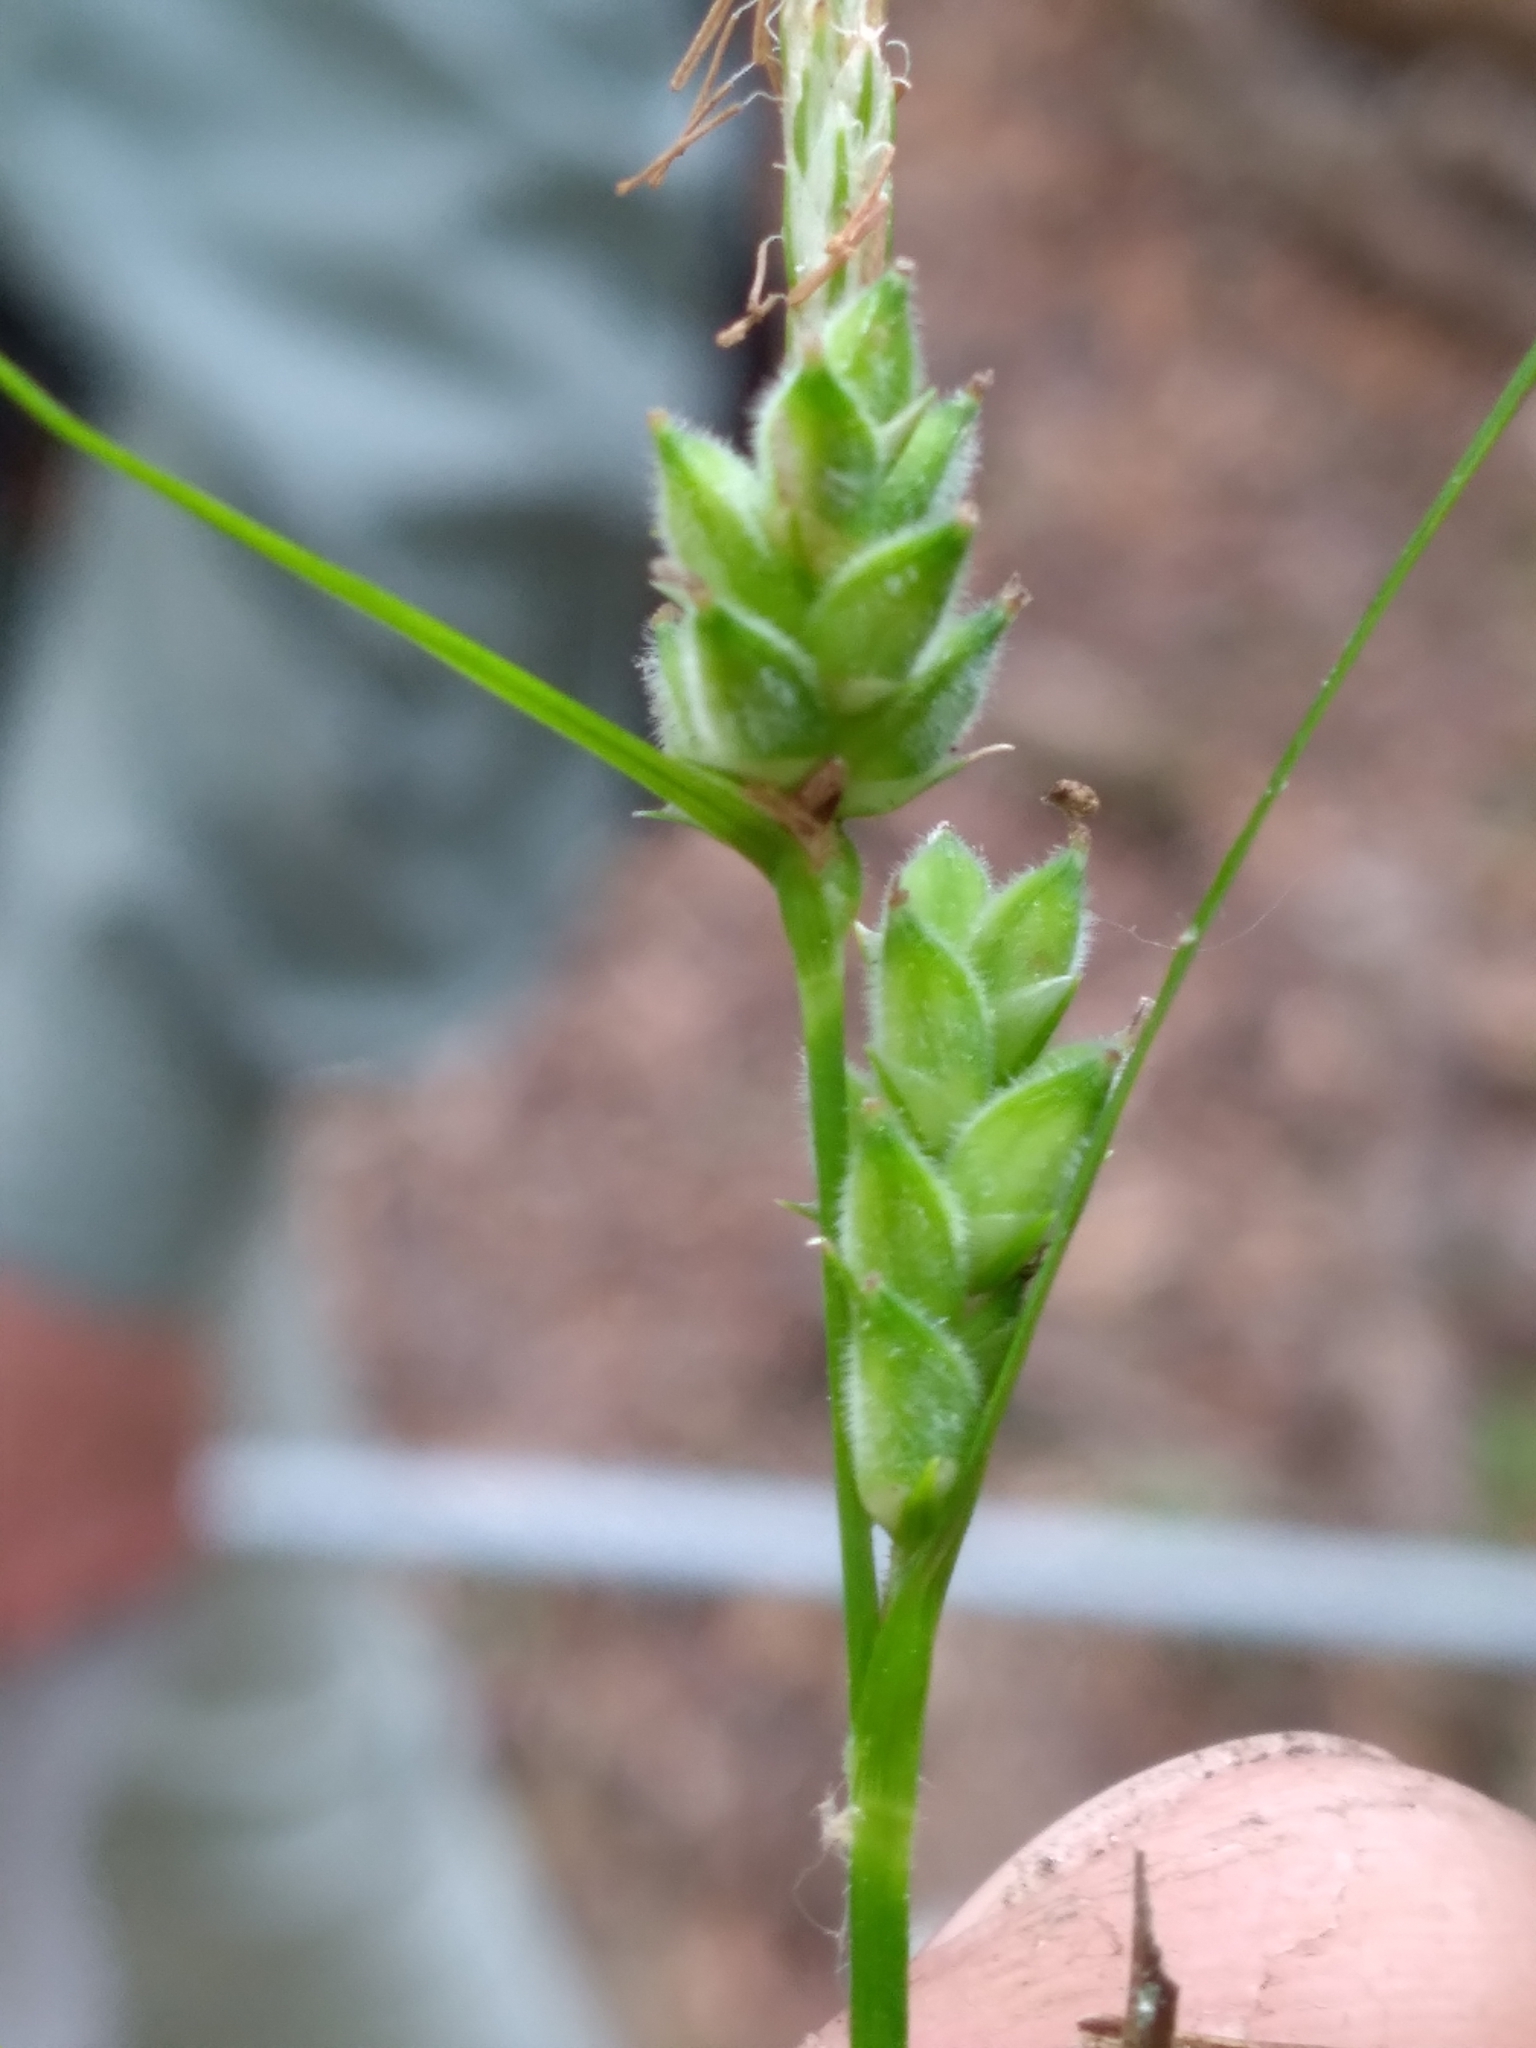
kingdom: Plantae
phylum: Tracheophyta
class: Liliopsida
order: Poales
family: Cyperaceae
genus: Carex
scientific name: Carex dasycarpa
